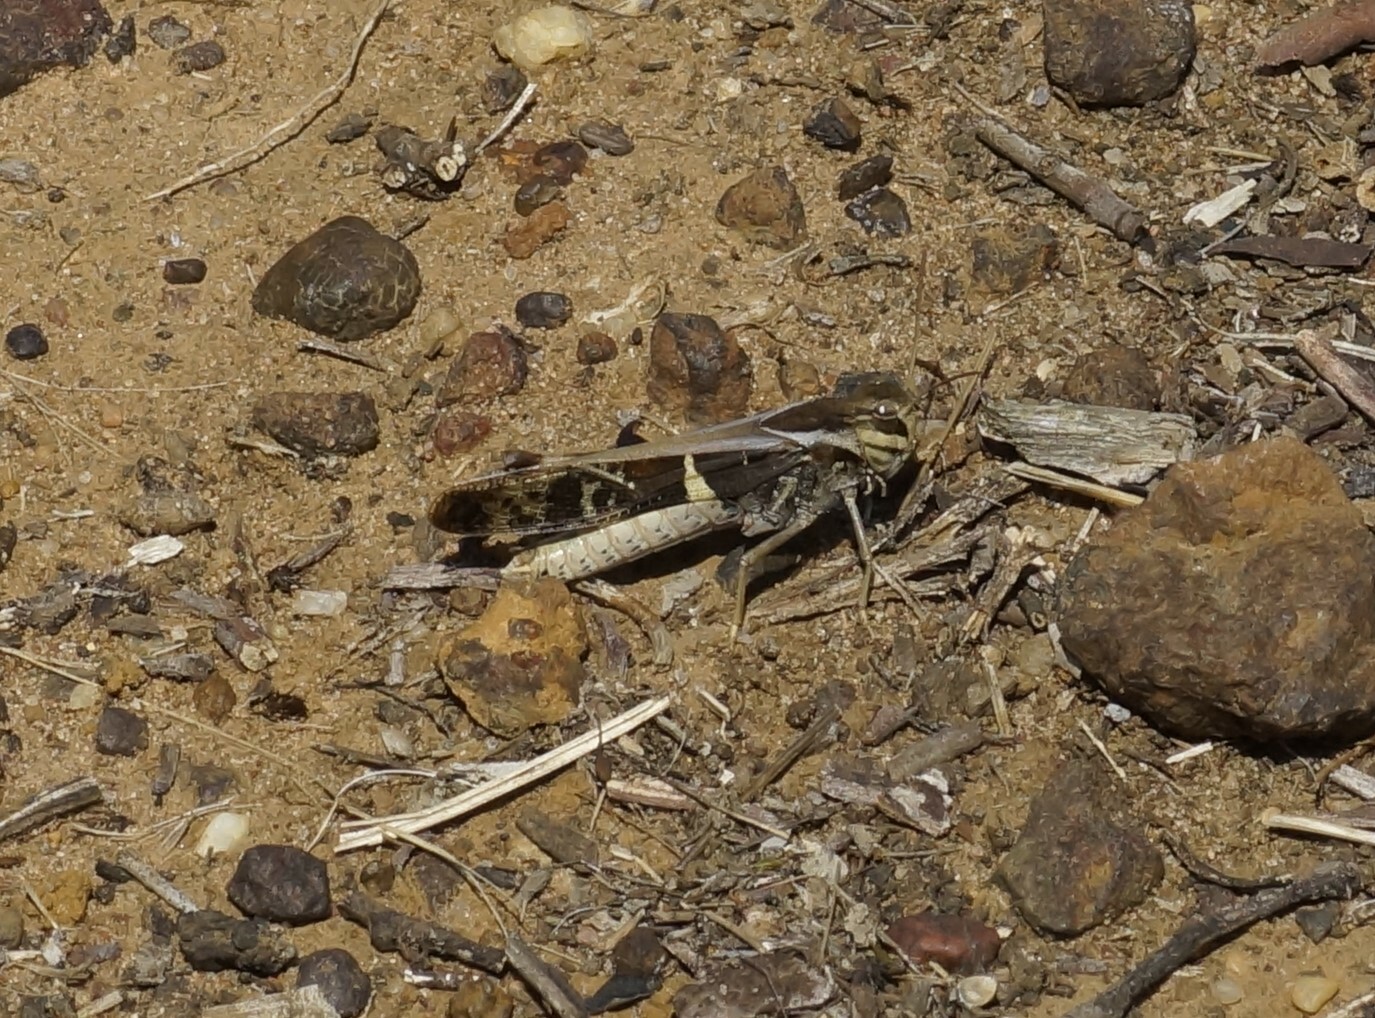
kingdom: Animalia
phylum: Arthropoda
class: Insecta
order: Orthoptera
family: Acrididae
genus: Gastrimargus
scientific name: Gastrimargus musicus
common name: Yellow-winged locust
